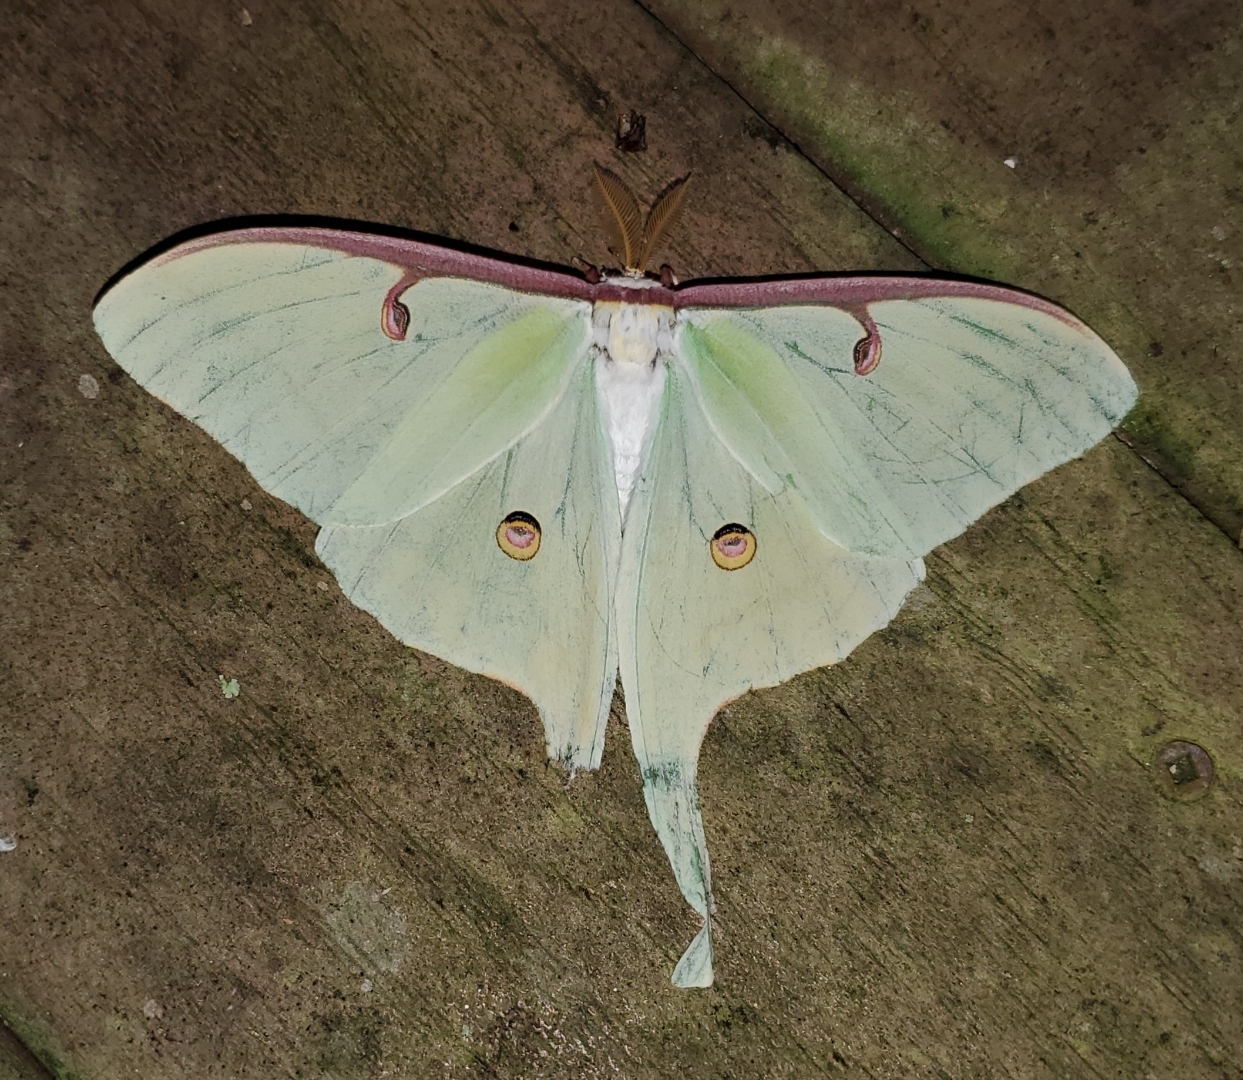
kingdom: Animalia
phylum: Arthropoda
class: Insecta
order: Lepidoptera
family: Saturniidae
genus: Actias
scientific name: Actias luna
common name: Luna moth
